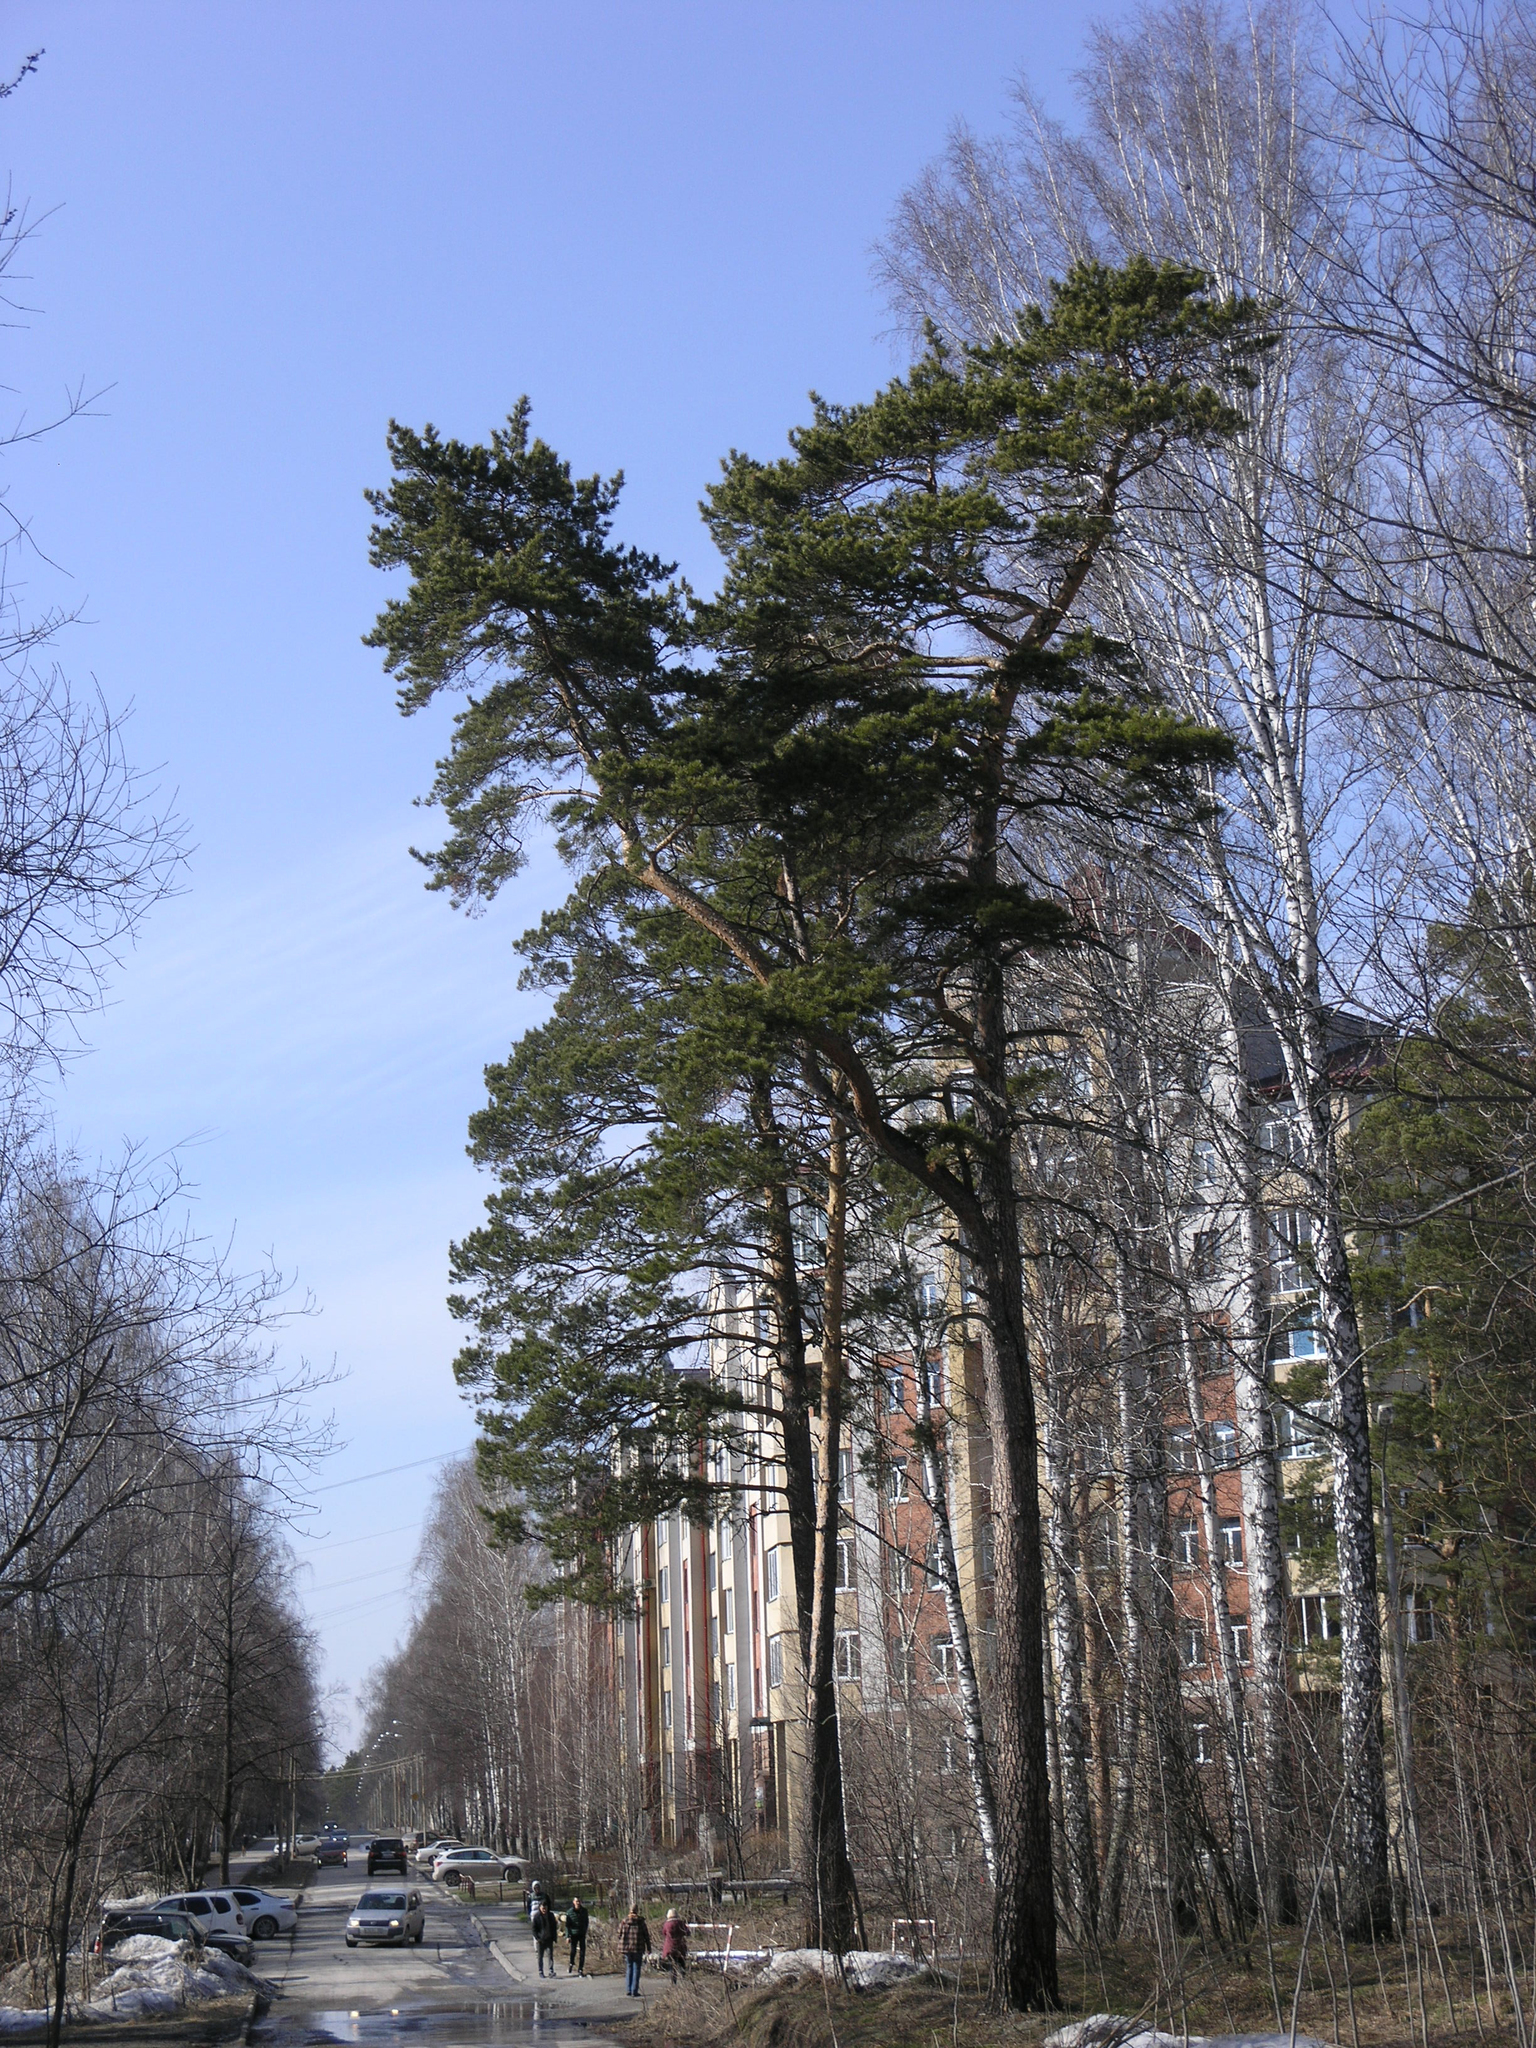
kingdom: Plantae
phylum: Tracheophyta
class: Pinopsida
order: Pinales
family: Pinaceae
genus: Pinus
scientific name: Pinus sylvestris
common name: Scots pine
